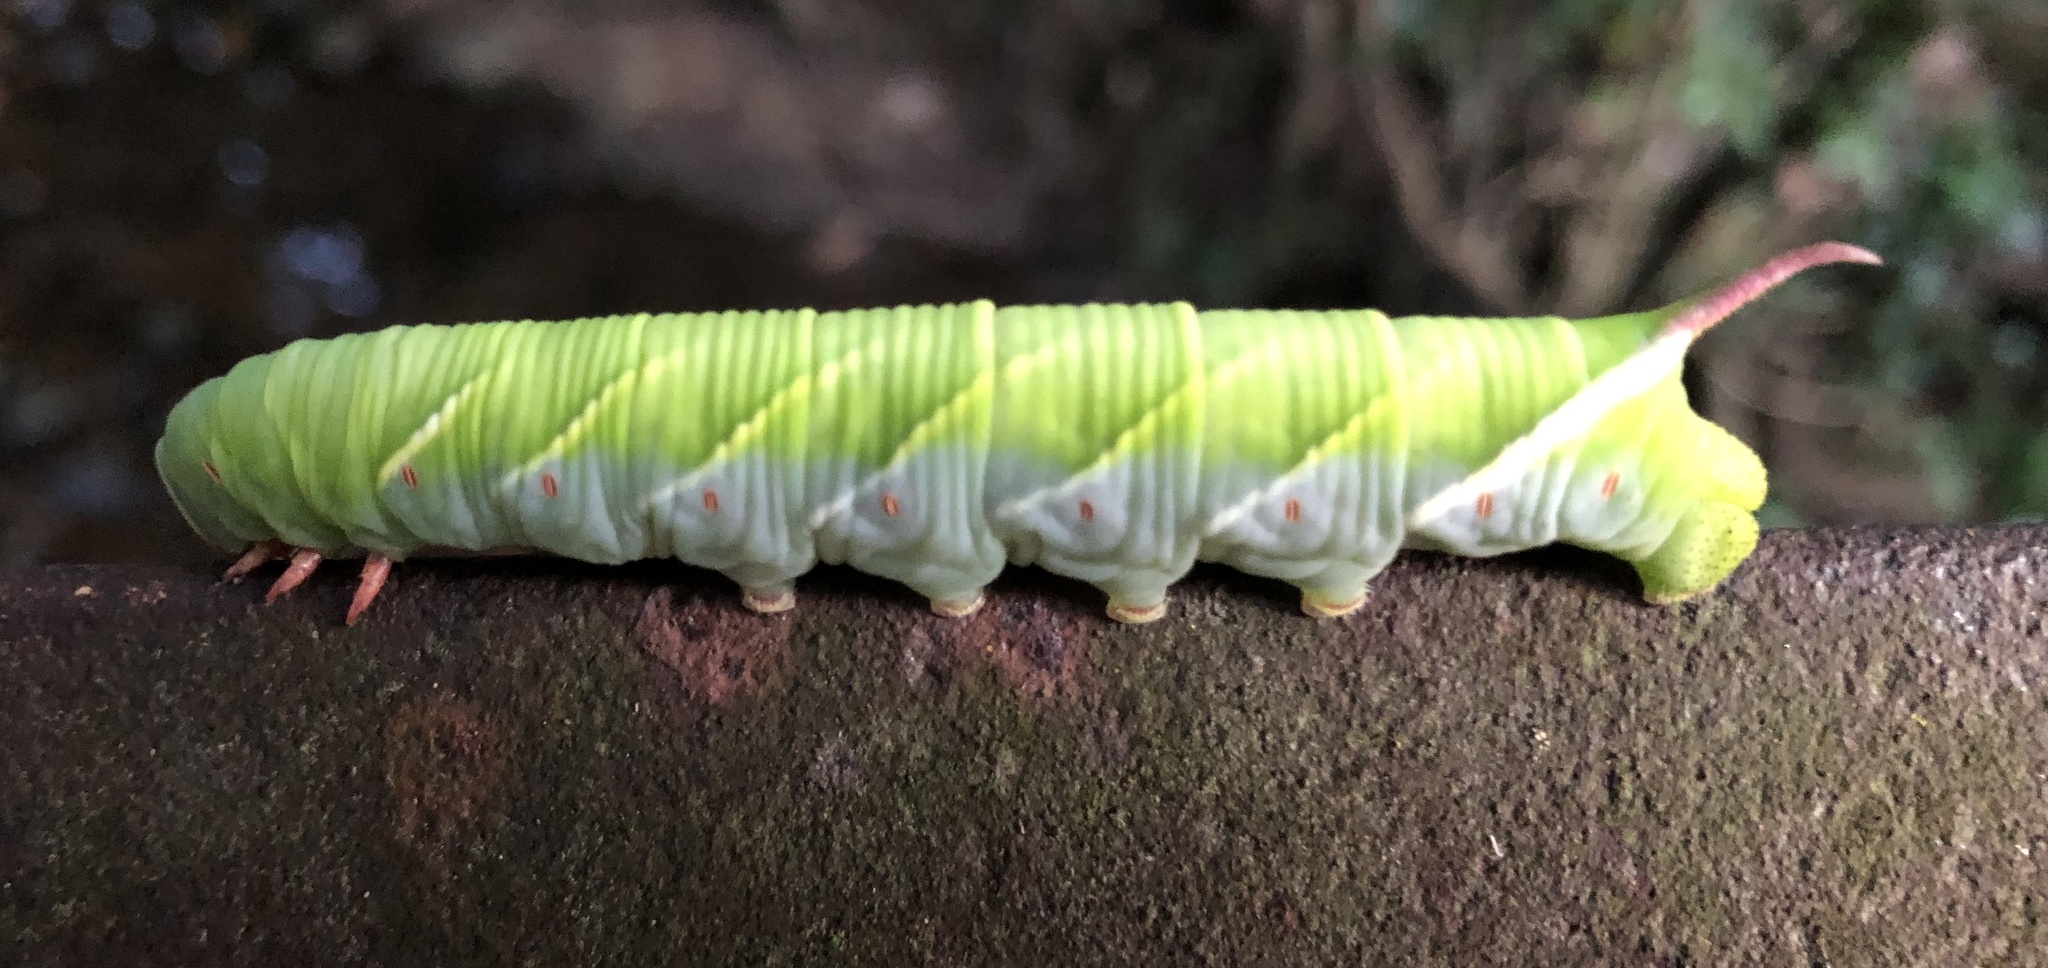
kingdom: Animalia
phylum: Arthropoda
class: Insecta
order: Lepidoptera
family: Sphingidae
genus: Ceratomia
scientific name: Ceratomia undulosa
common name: Waved sphinx
